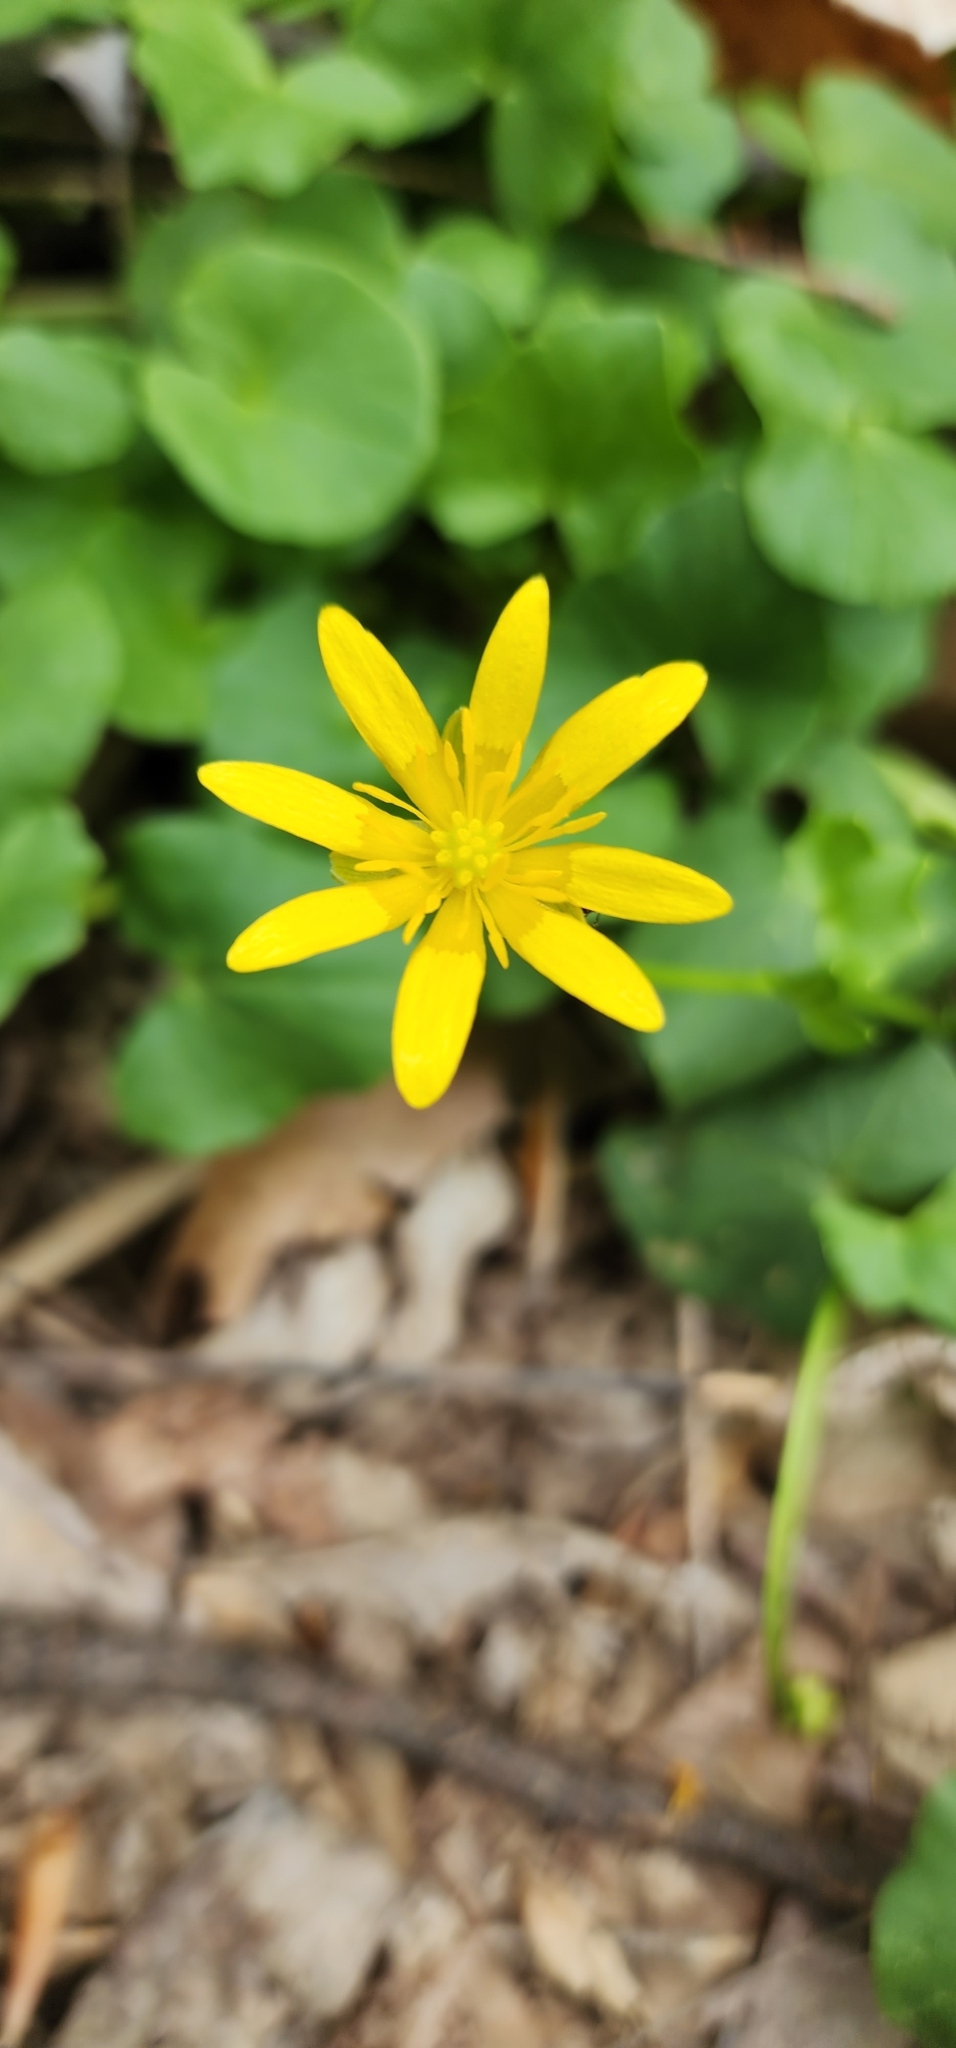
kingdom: Plantae
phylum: Tracheophyta
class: Magnoliopsida
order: Ranunculales
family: Ranunculaceae
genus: Ficaria
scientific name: Ficaria verna
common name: Lesser celandine
